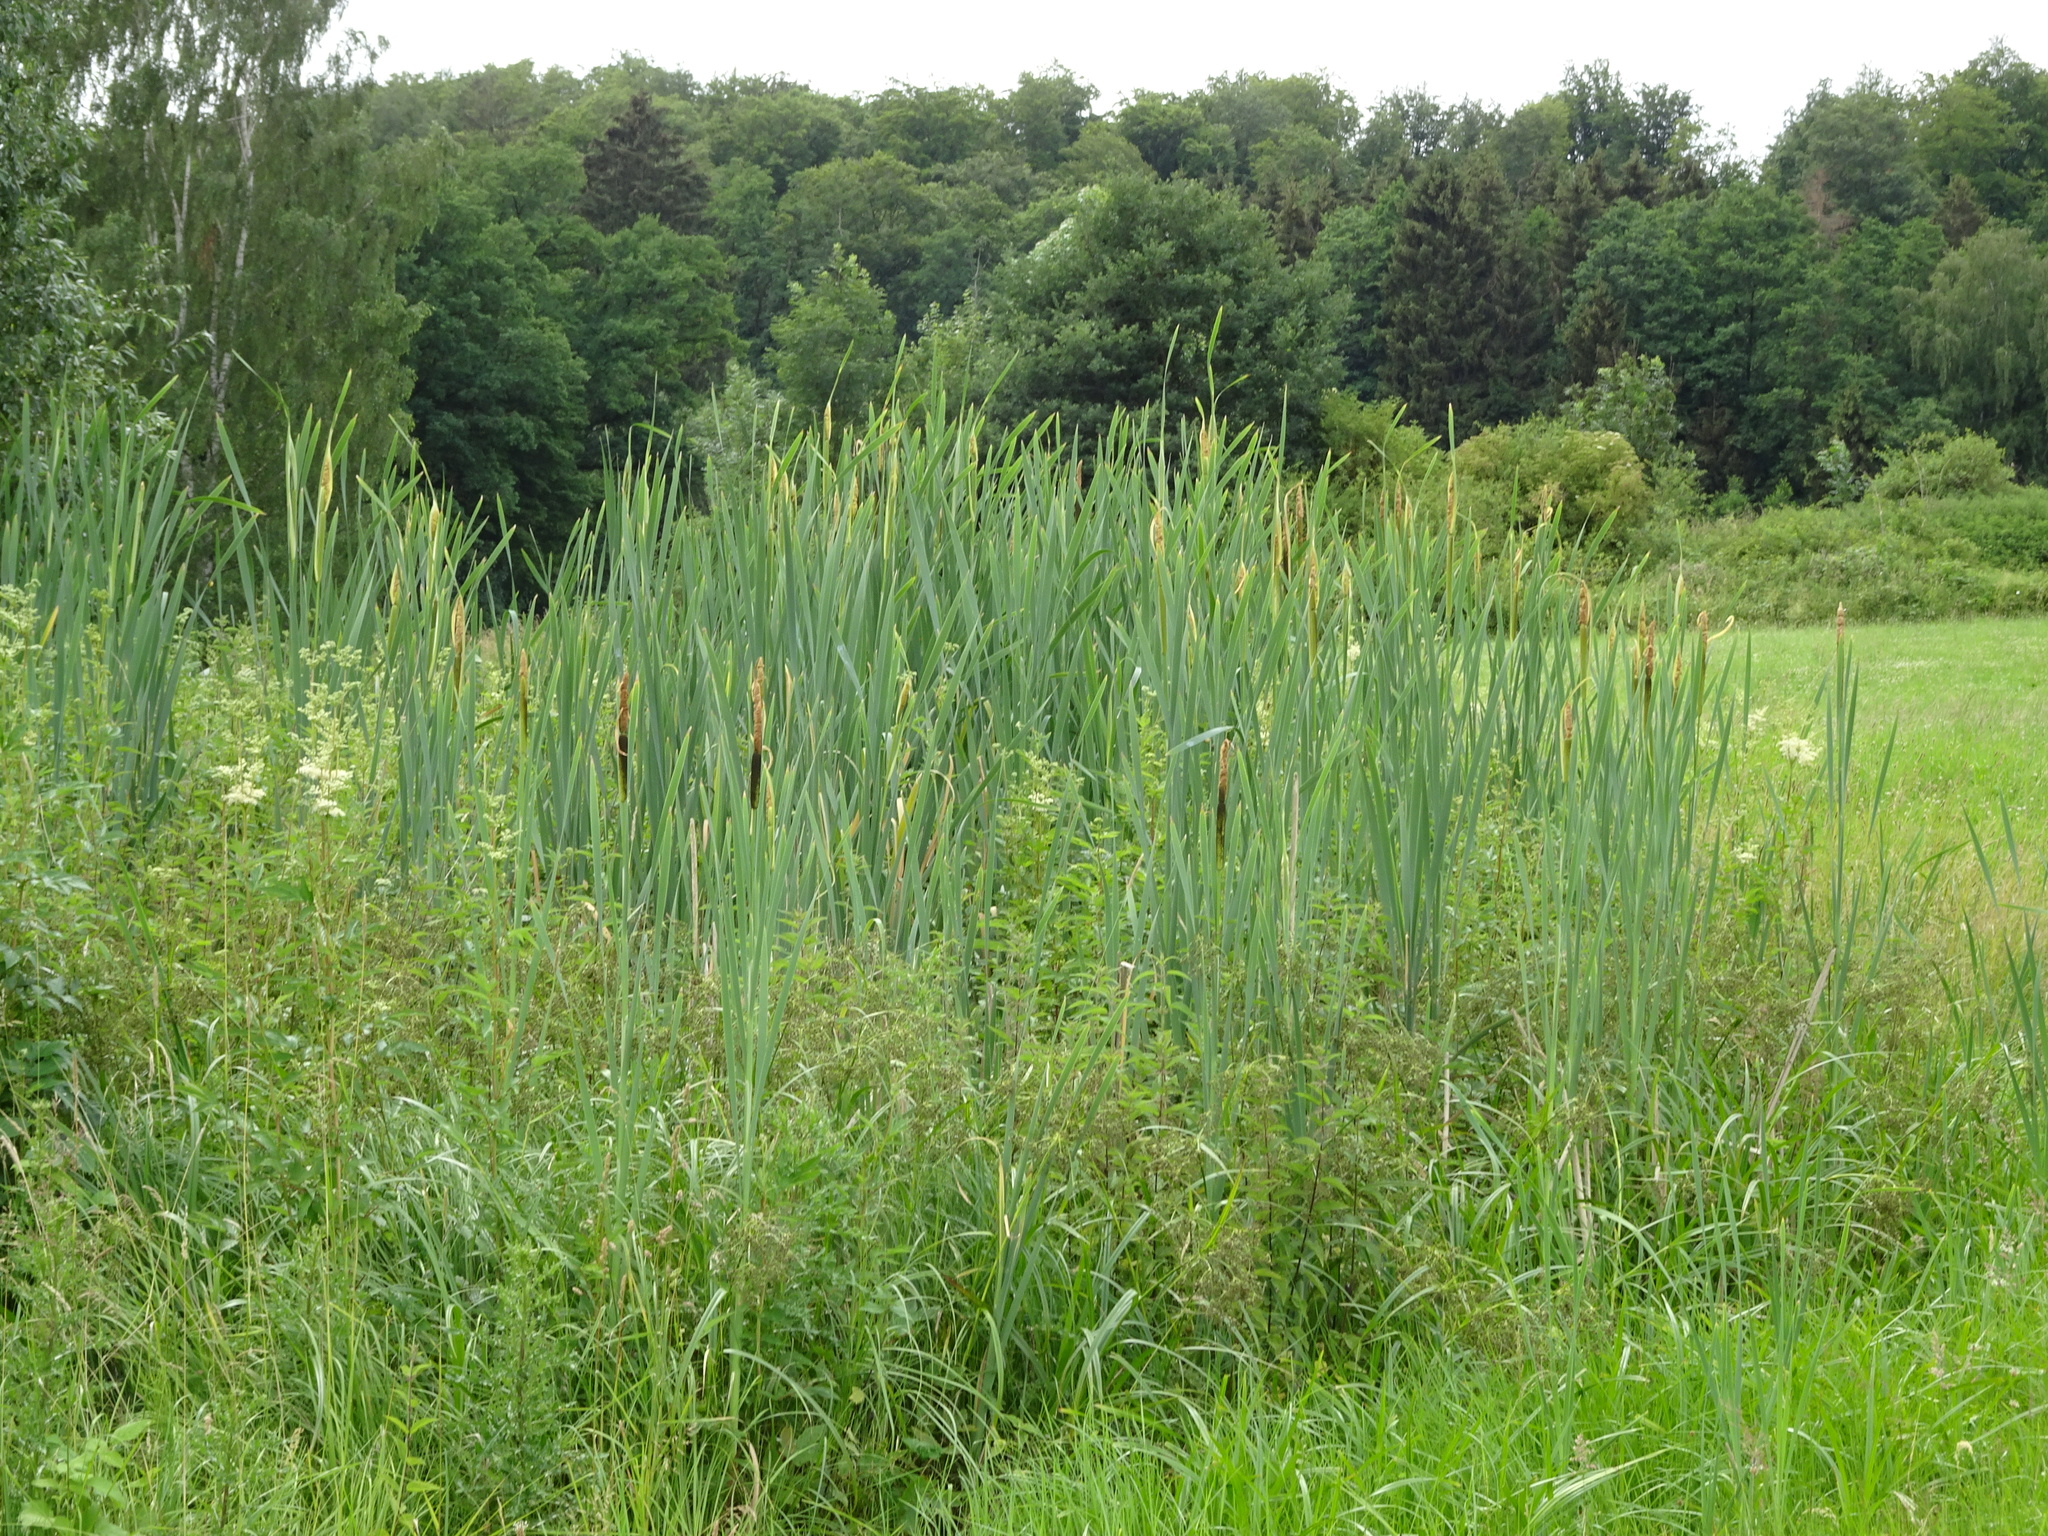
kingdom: Plantae
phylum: Tracheophyta
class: Liliopsida
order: Poales
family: Typhaceae
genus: Typha
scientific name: Typha latifolia
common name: Broadleaf cattail
